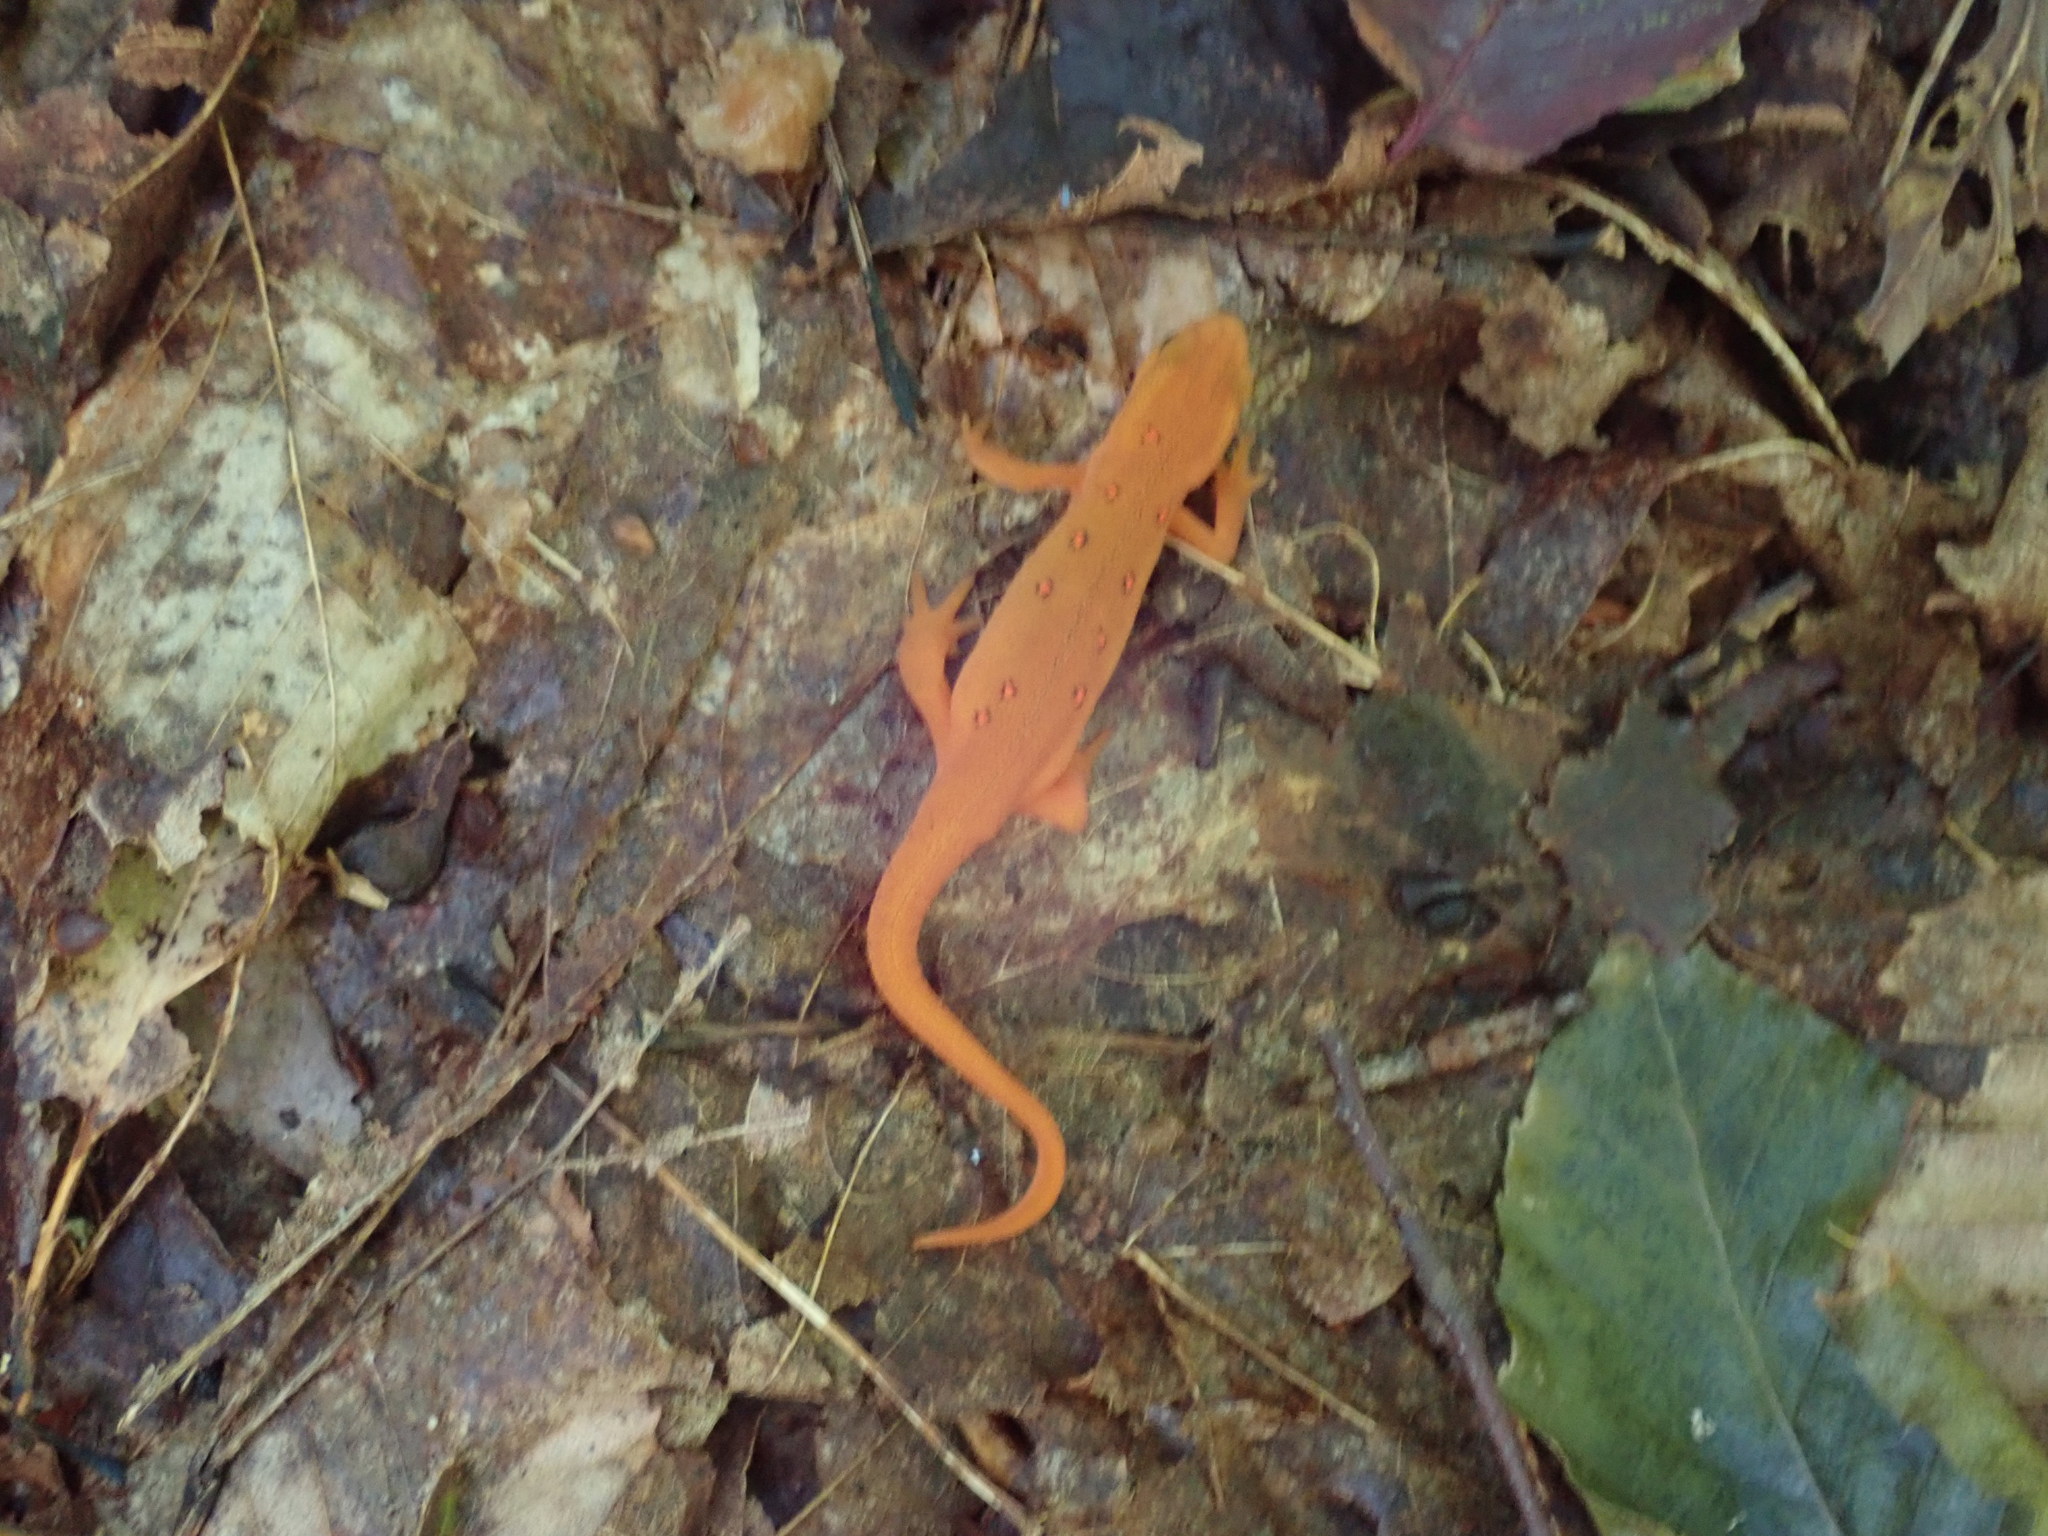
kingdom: Animalia
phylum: Chordata
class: Amphibia
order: Caudata
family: Salamandridae
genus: Notophthalmus
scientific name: Notophthalmus viridescens
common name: Eastern newt
